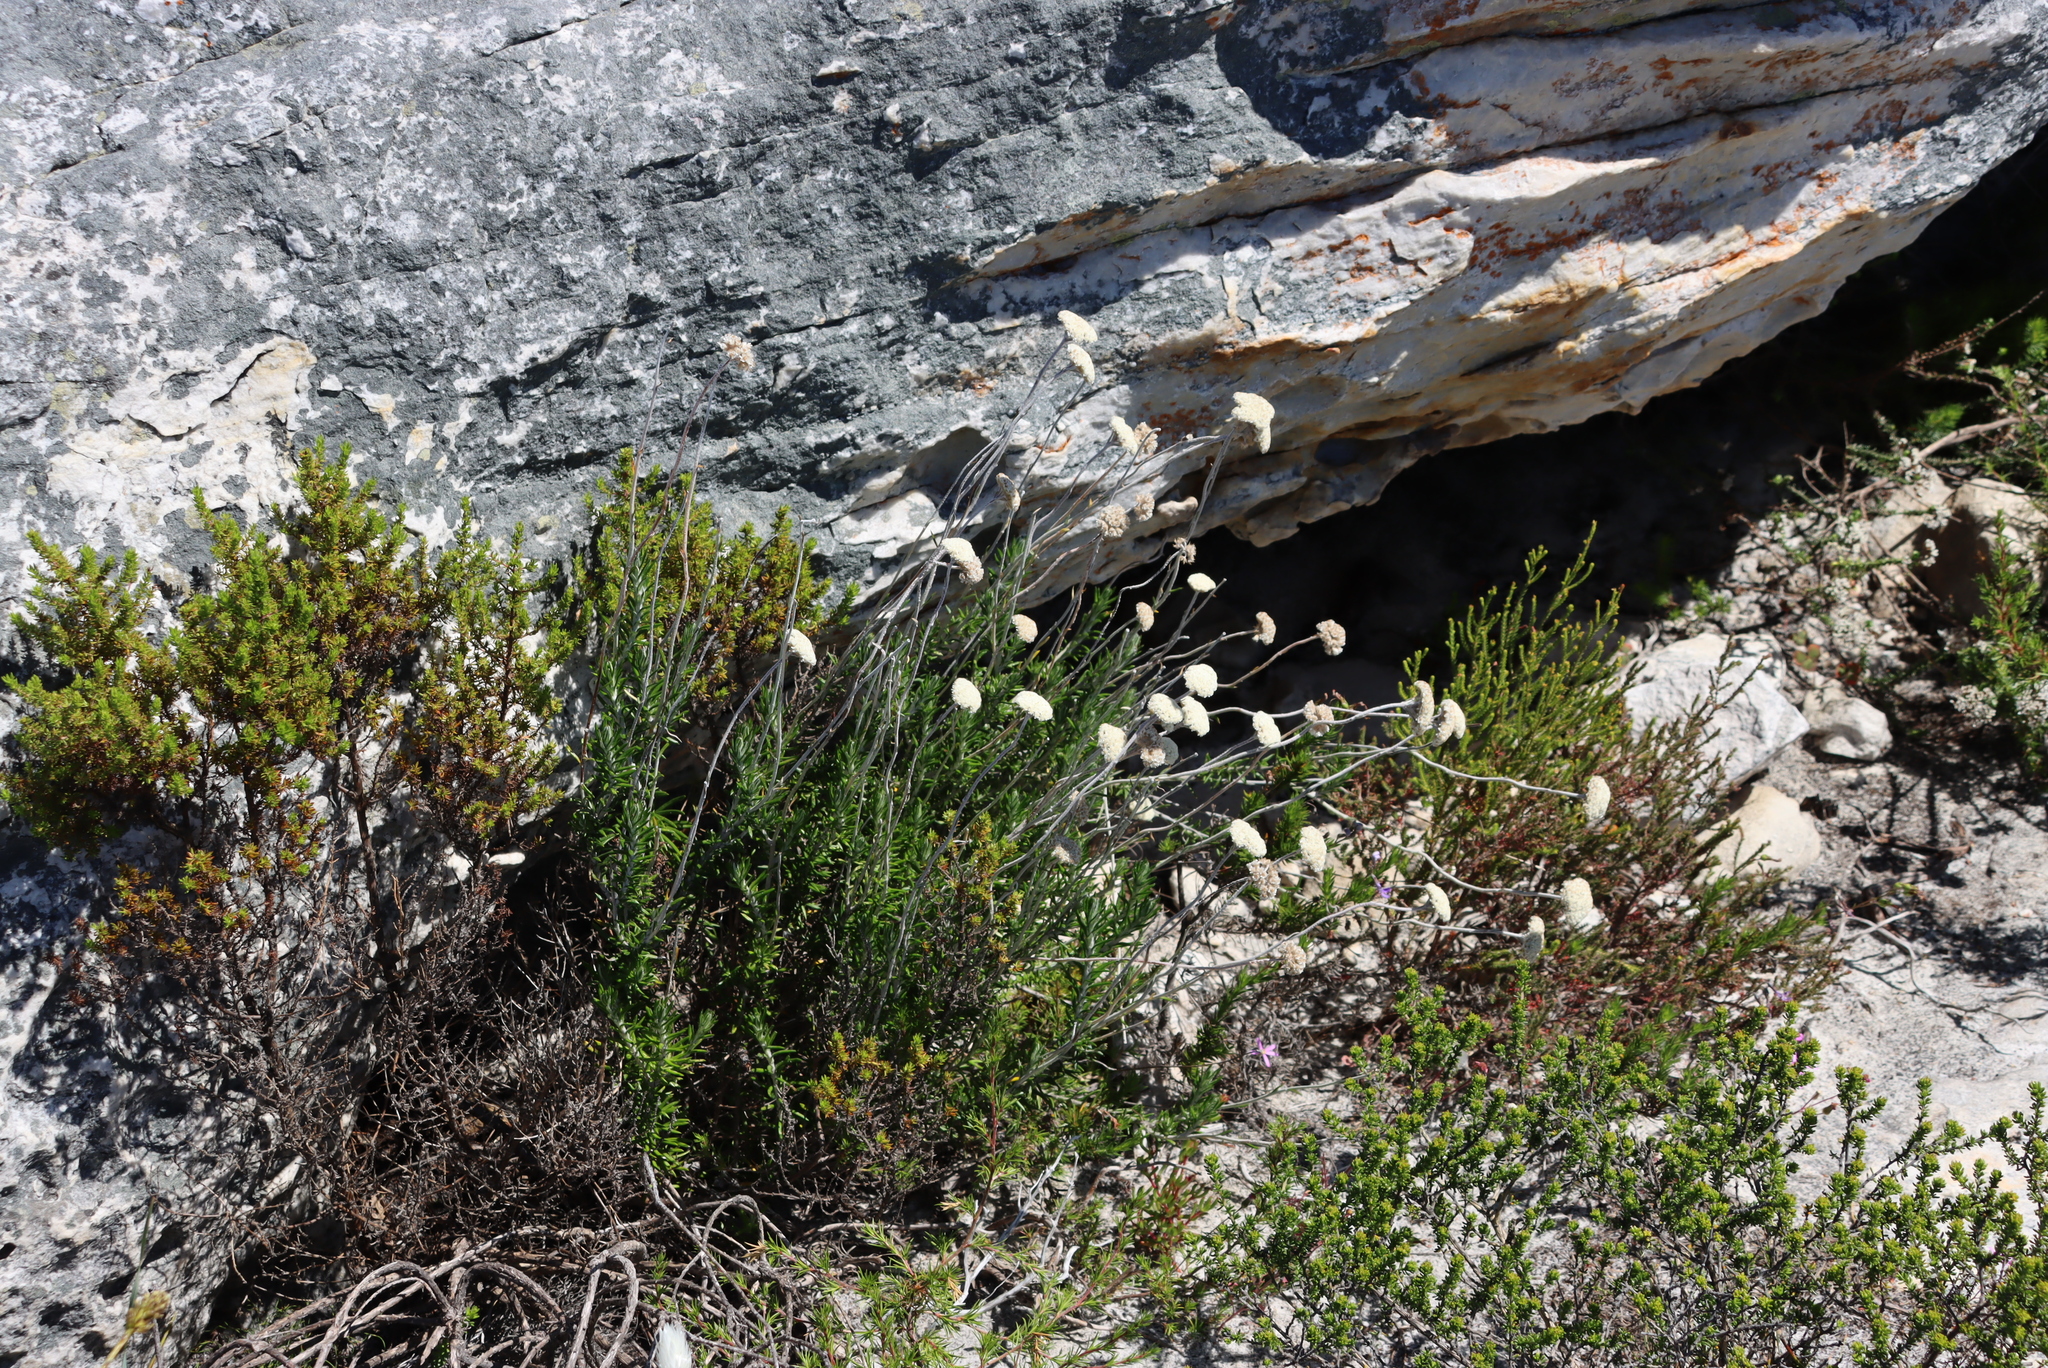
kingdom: Plantae
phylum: Tracheophyta
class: Magnoliopsida
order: Asterales
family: Asteraceae
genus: Anaxeton
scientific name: Anaxeton laeve
